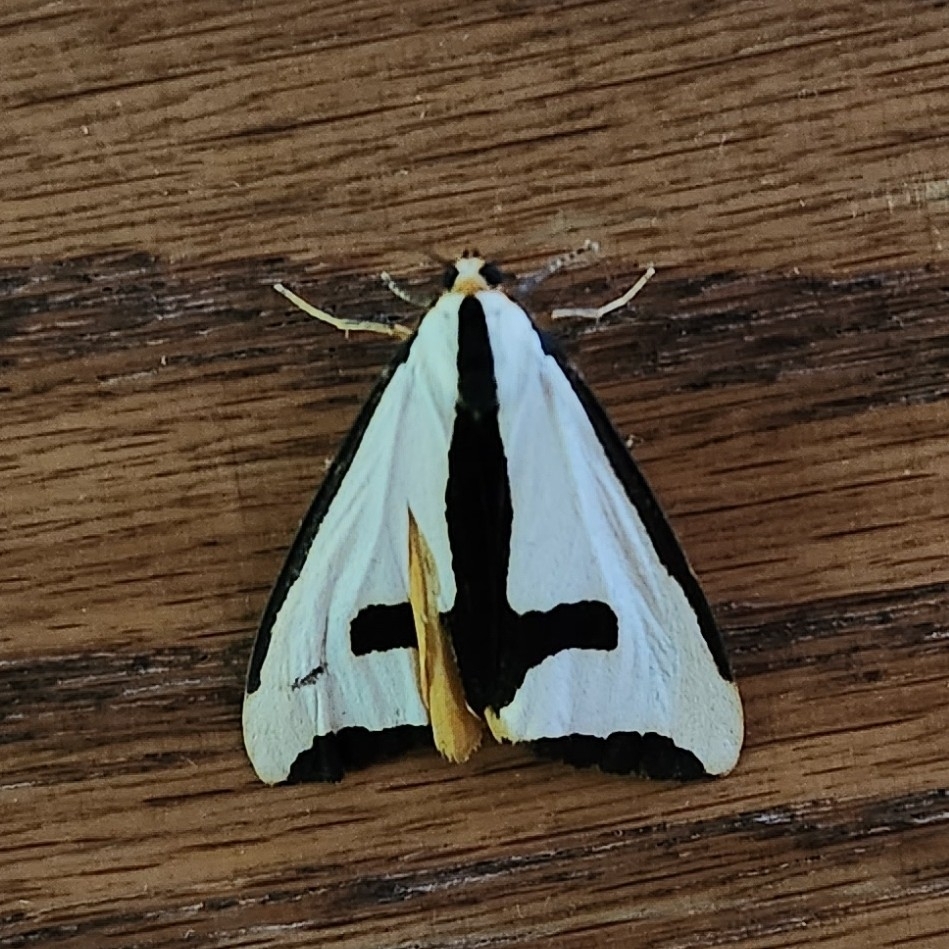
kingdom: Animalia
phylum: Arthropoda
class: Insecta
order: Lepidoptera
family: Erebidae
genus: Haploa
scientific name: Haploa clymene
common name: Clymene moth
